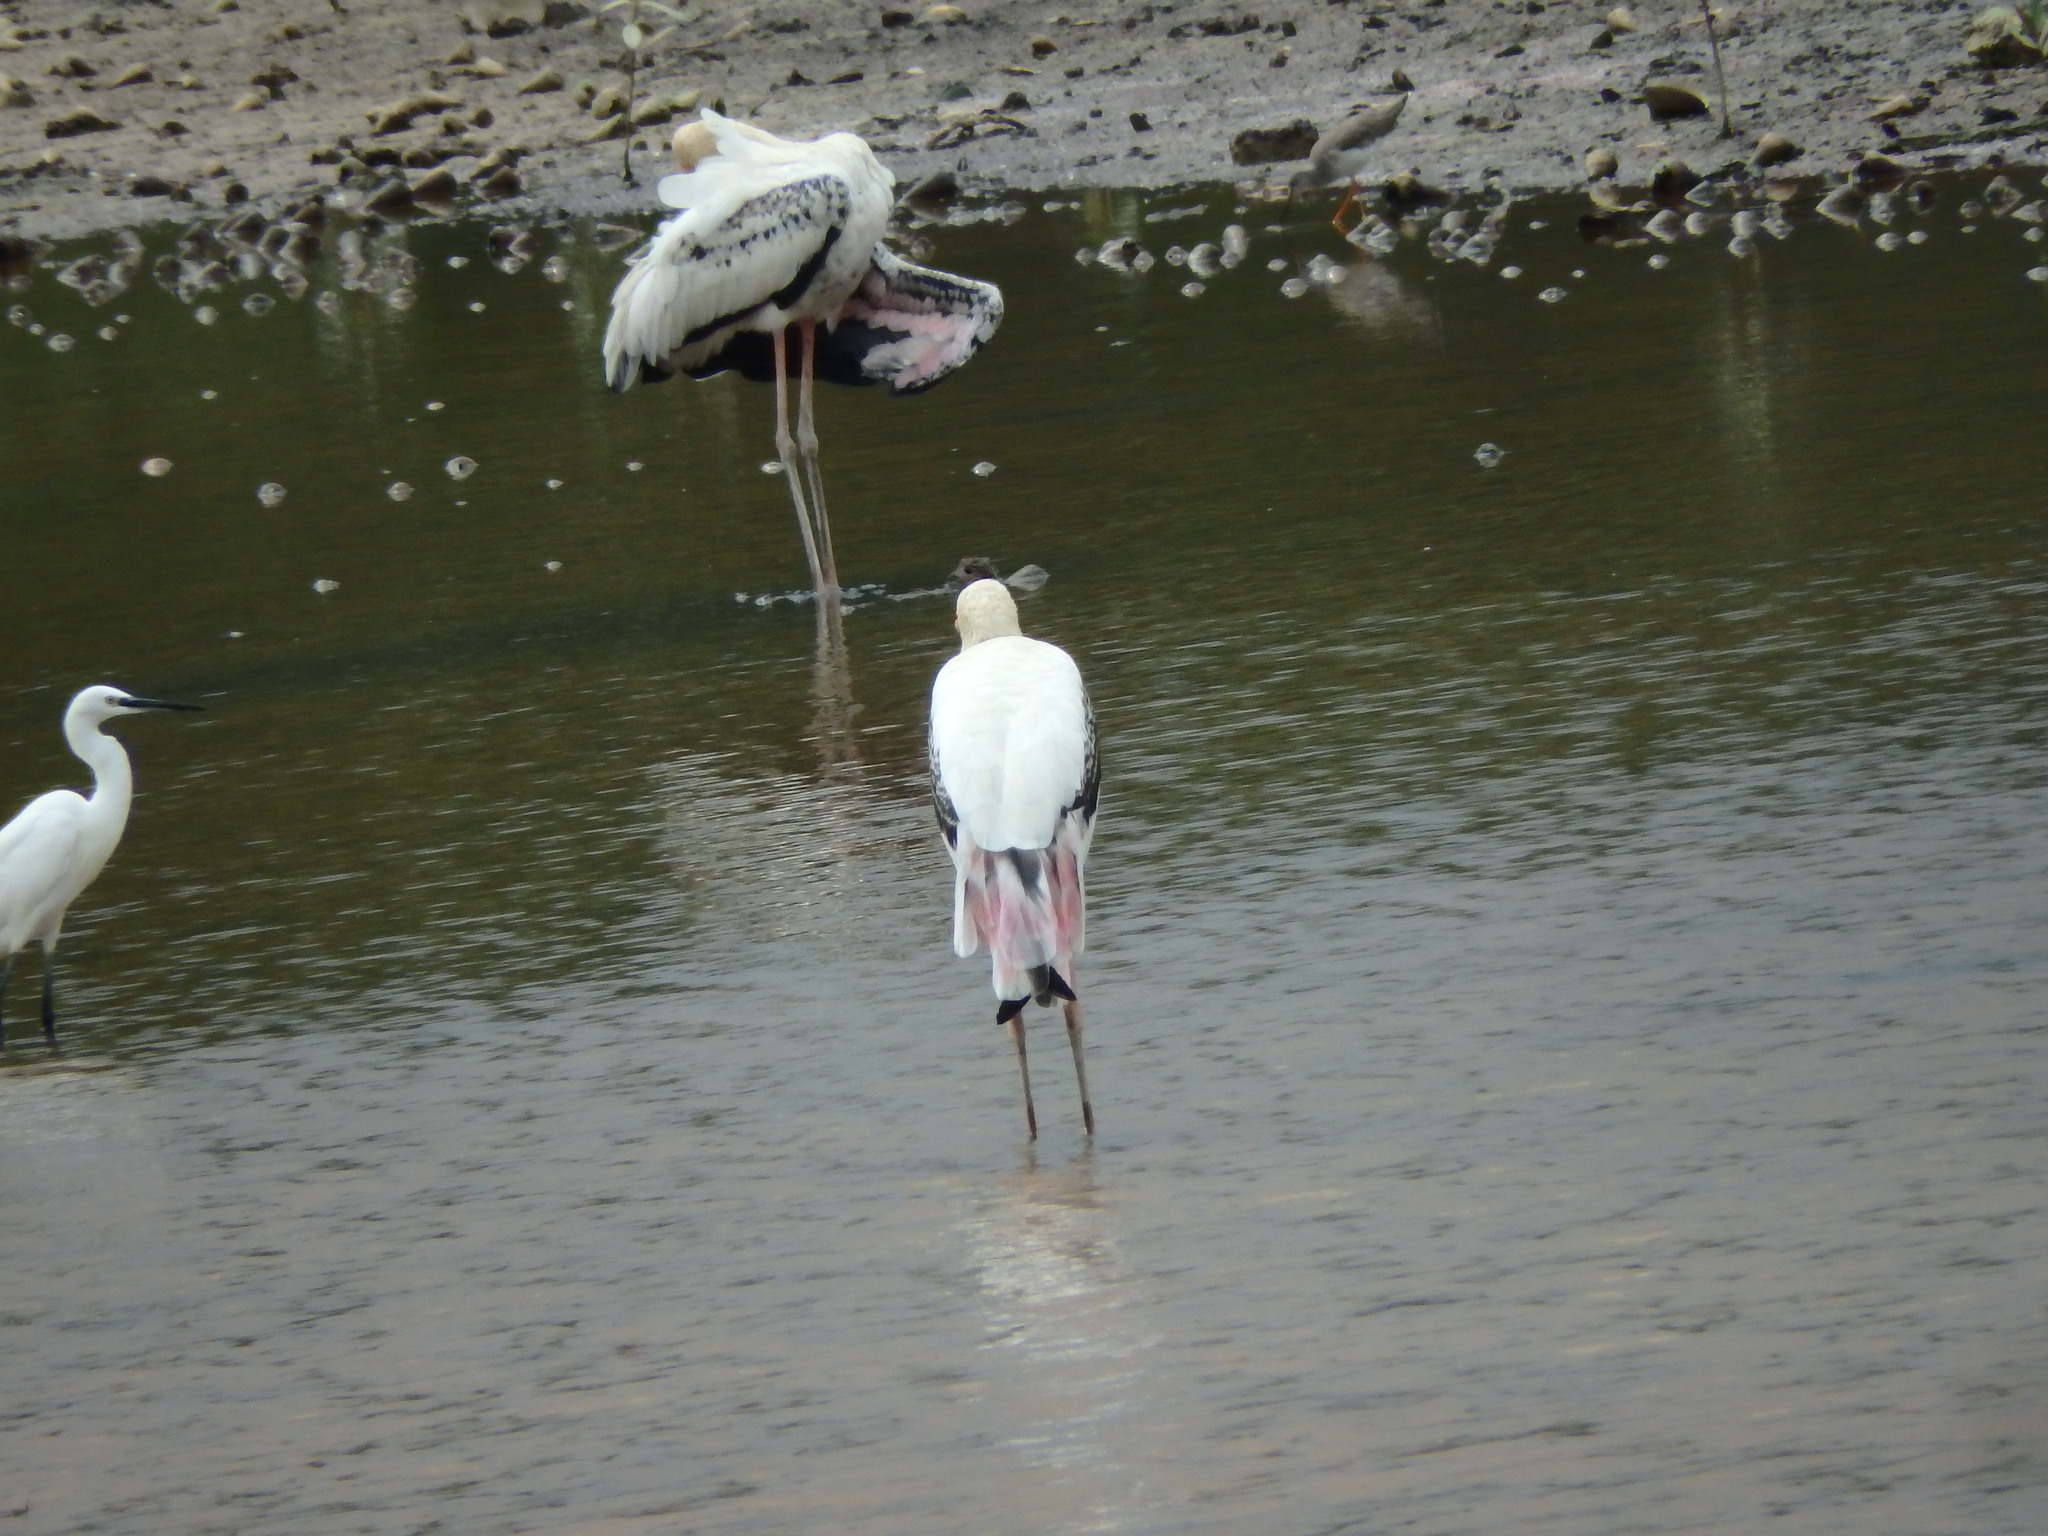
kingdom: Animalia
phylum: Chordata
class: Aves
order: Ciconiiformes
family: Ciconiidae
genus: Mycteria
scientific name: Mycteria leucocephala
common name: Painted stork
